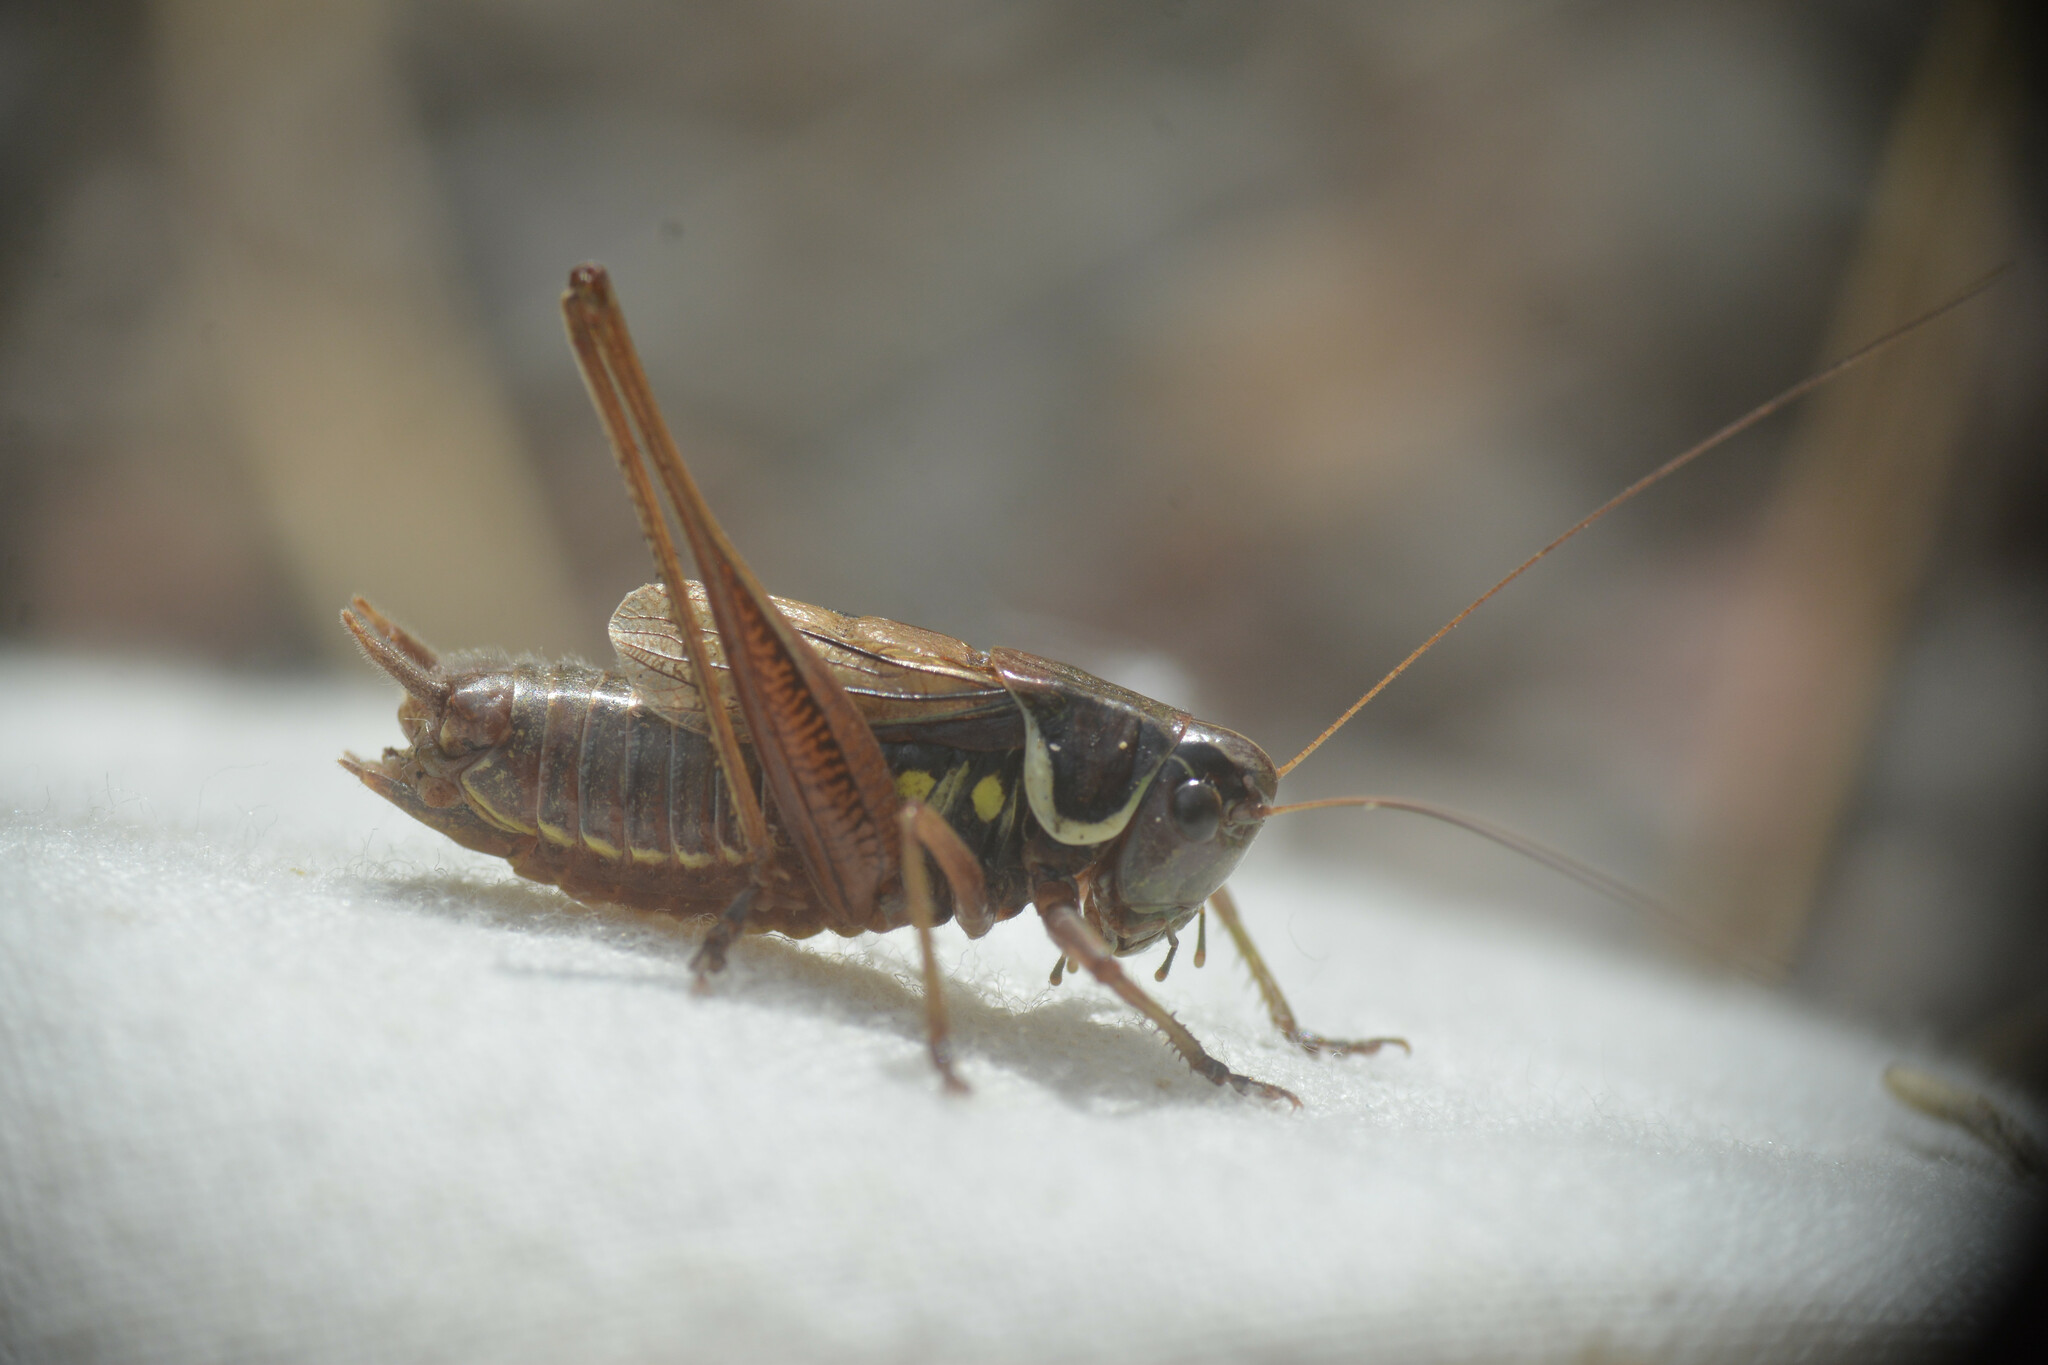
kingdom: Animalia
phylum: Arthropoda
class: Insecta
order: Orthoptera
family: Tettigoniidae
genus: Roeseliana
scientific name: Roeseliana roeselii
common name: Roesel's bush cricket
